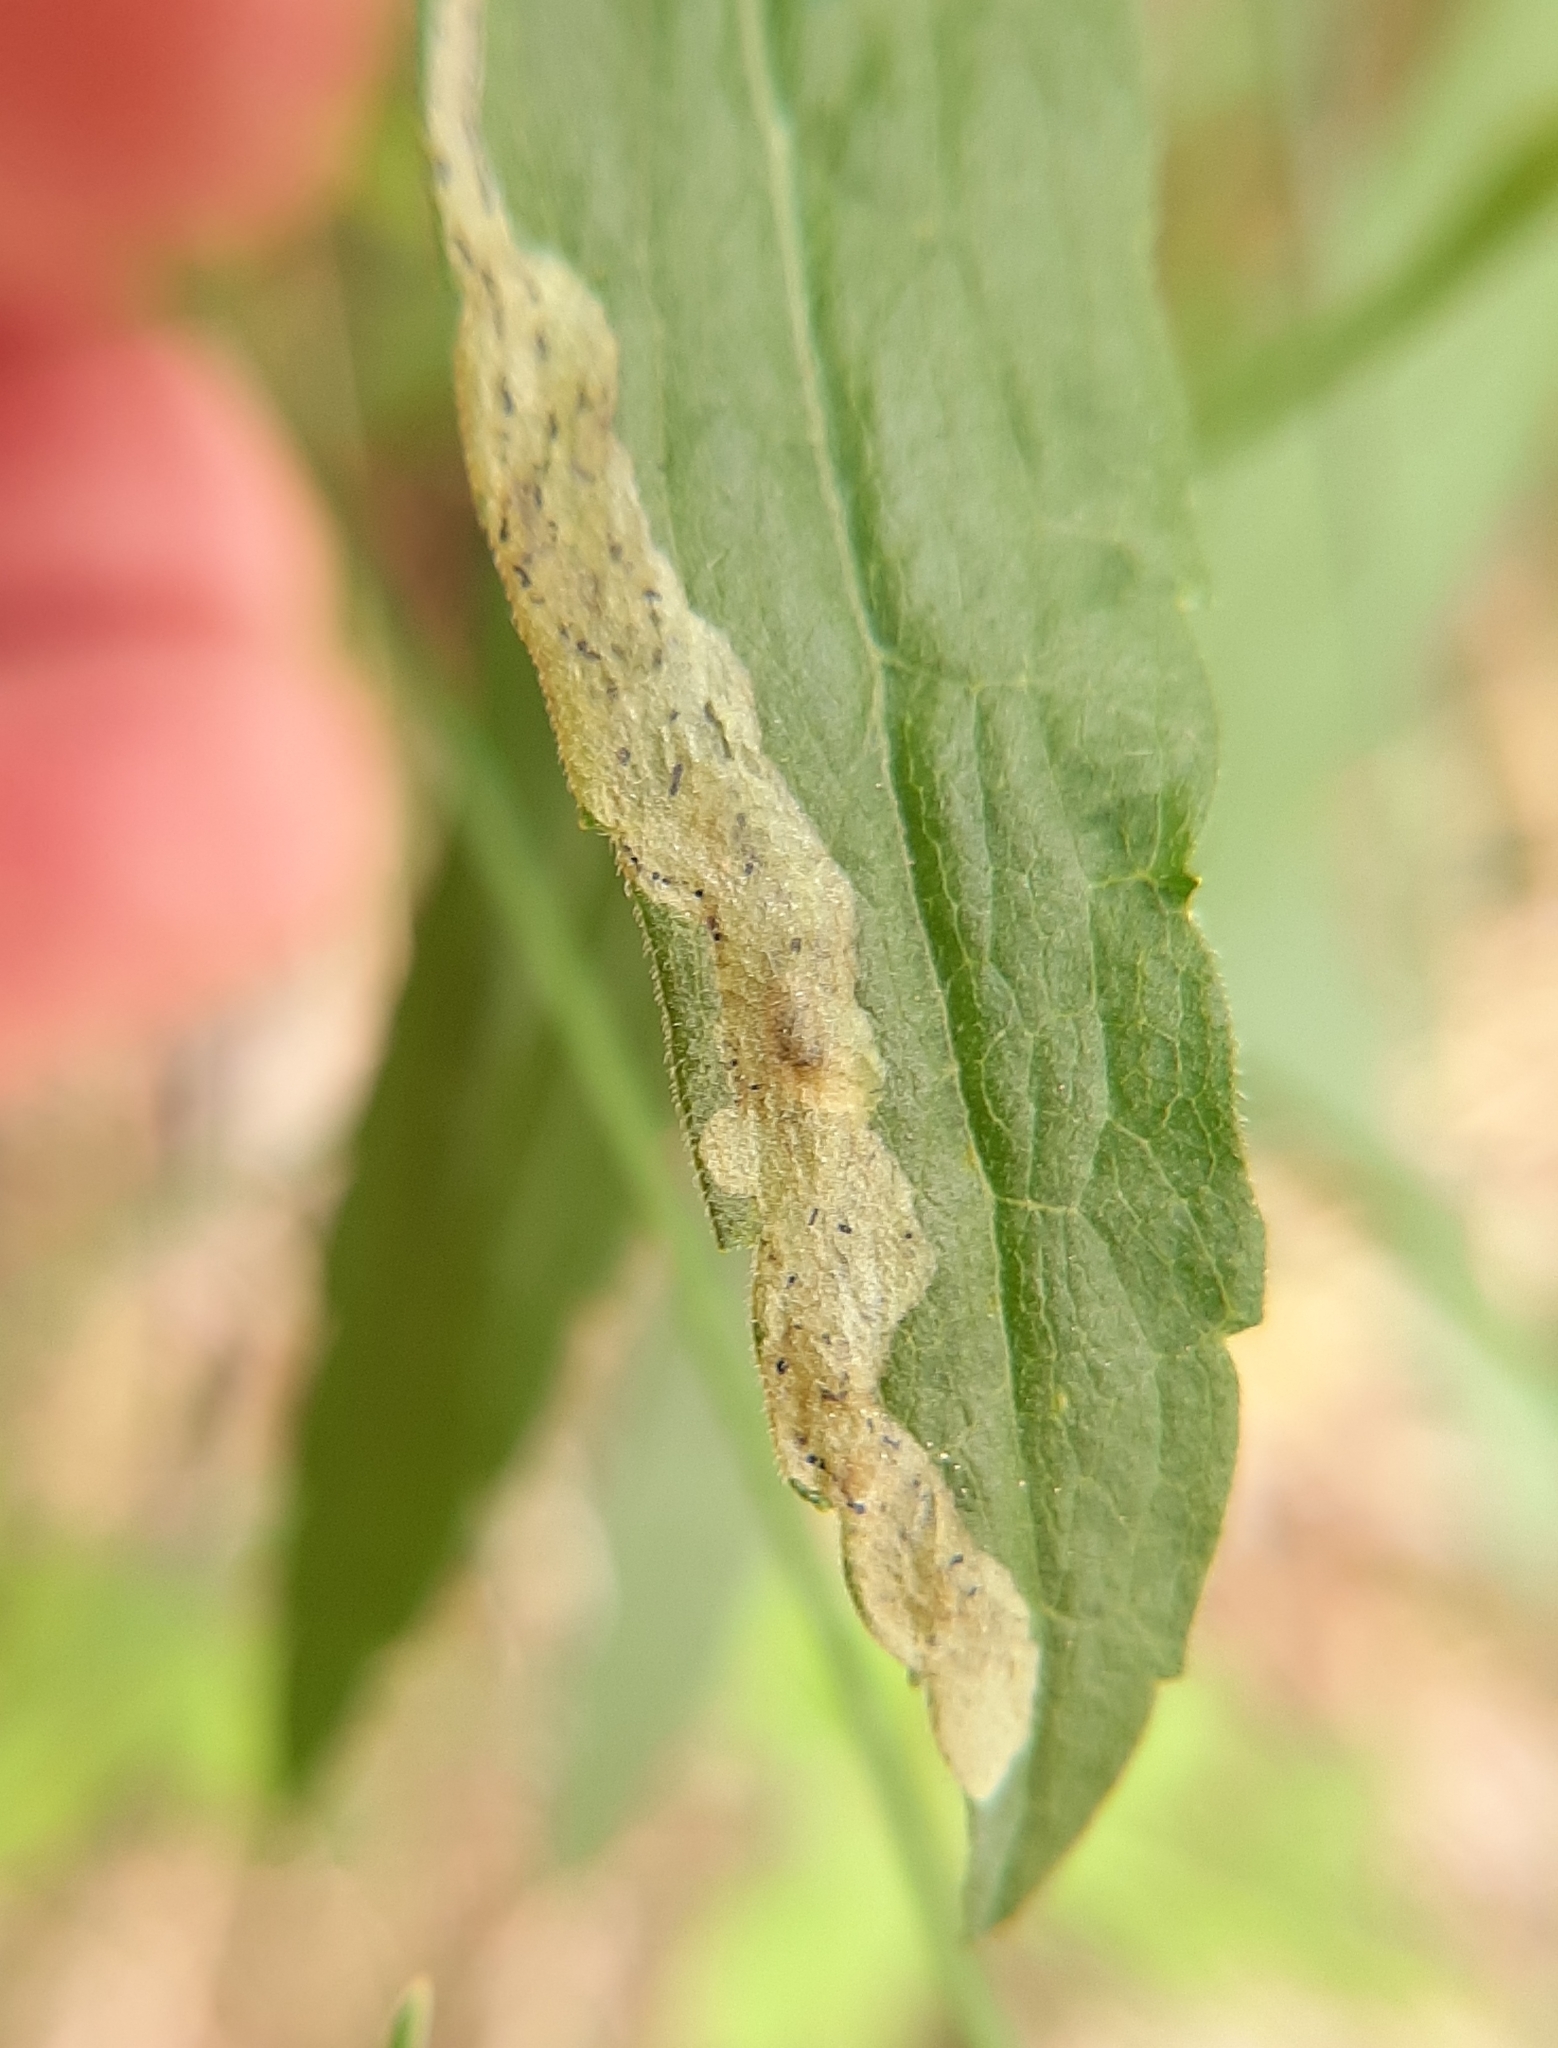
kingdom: Animalia
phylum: Arthropoda
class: Insecta
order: Diptera
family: Agromyzidae
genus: Phytomyza
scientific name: Phytomyza solidaginophaga
